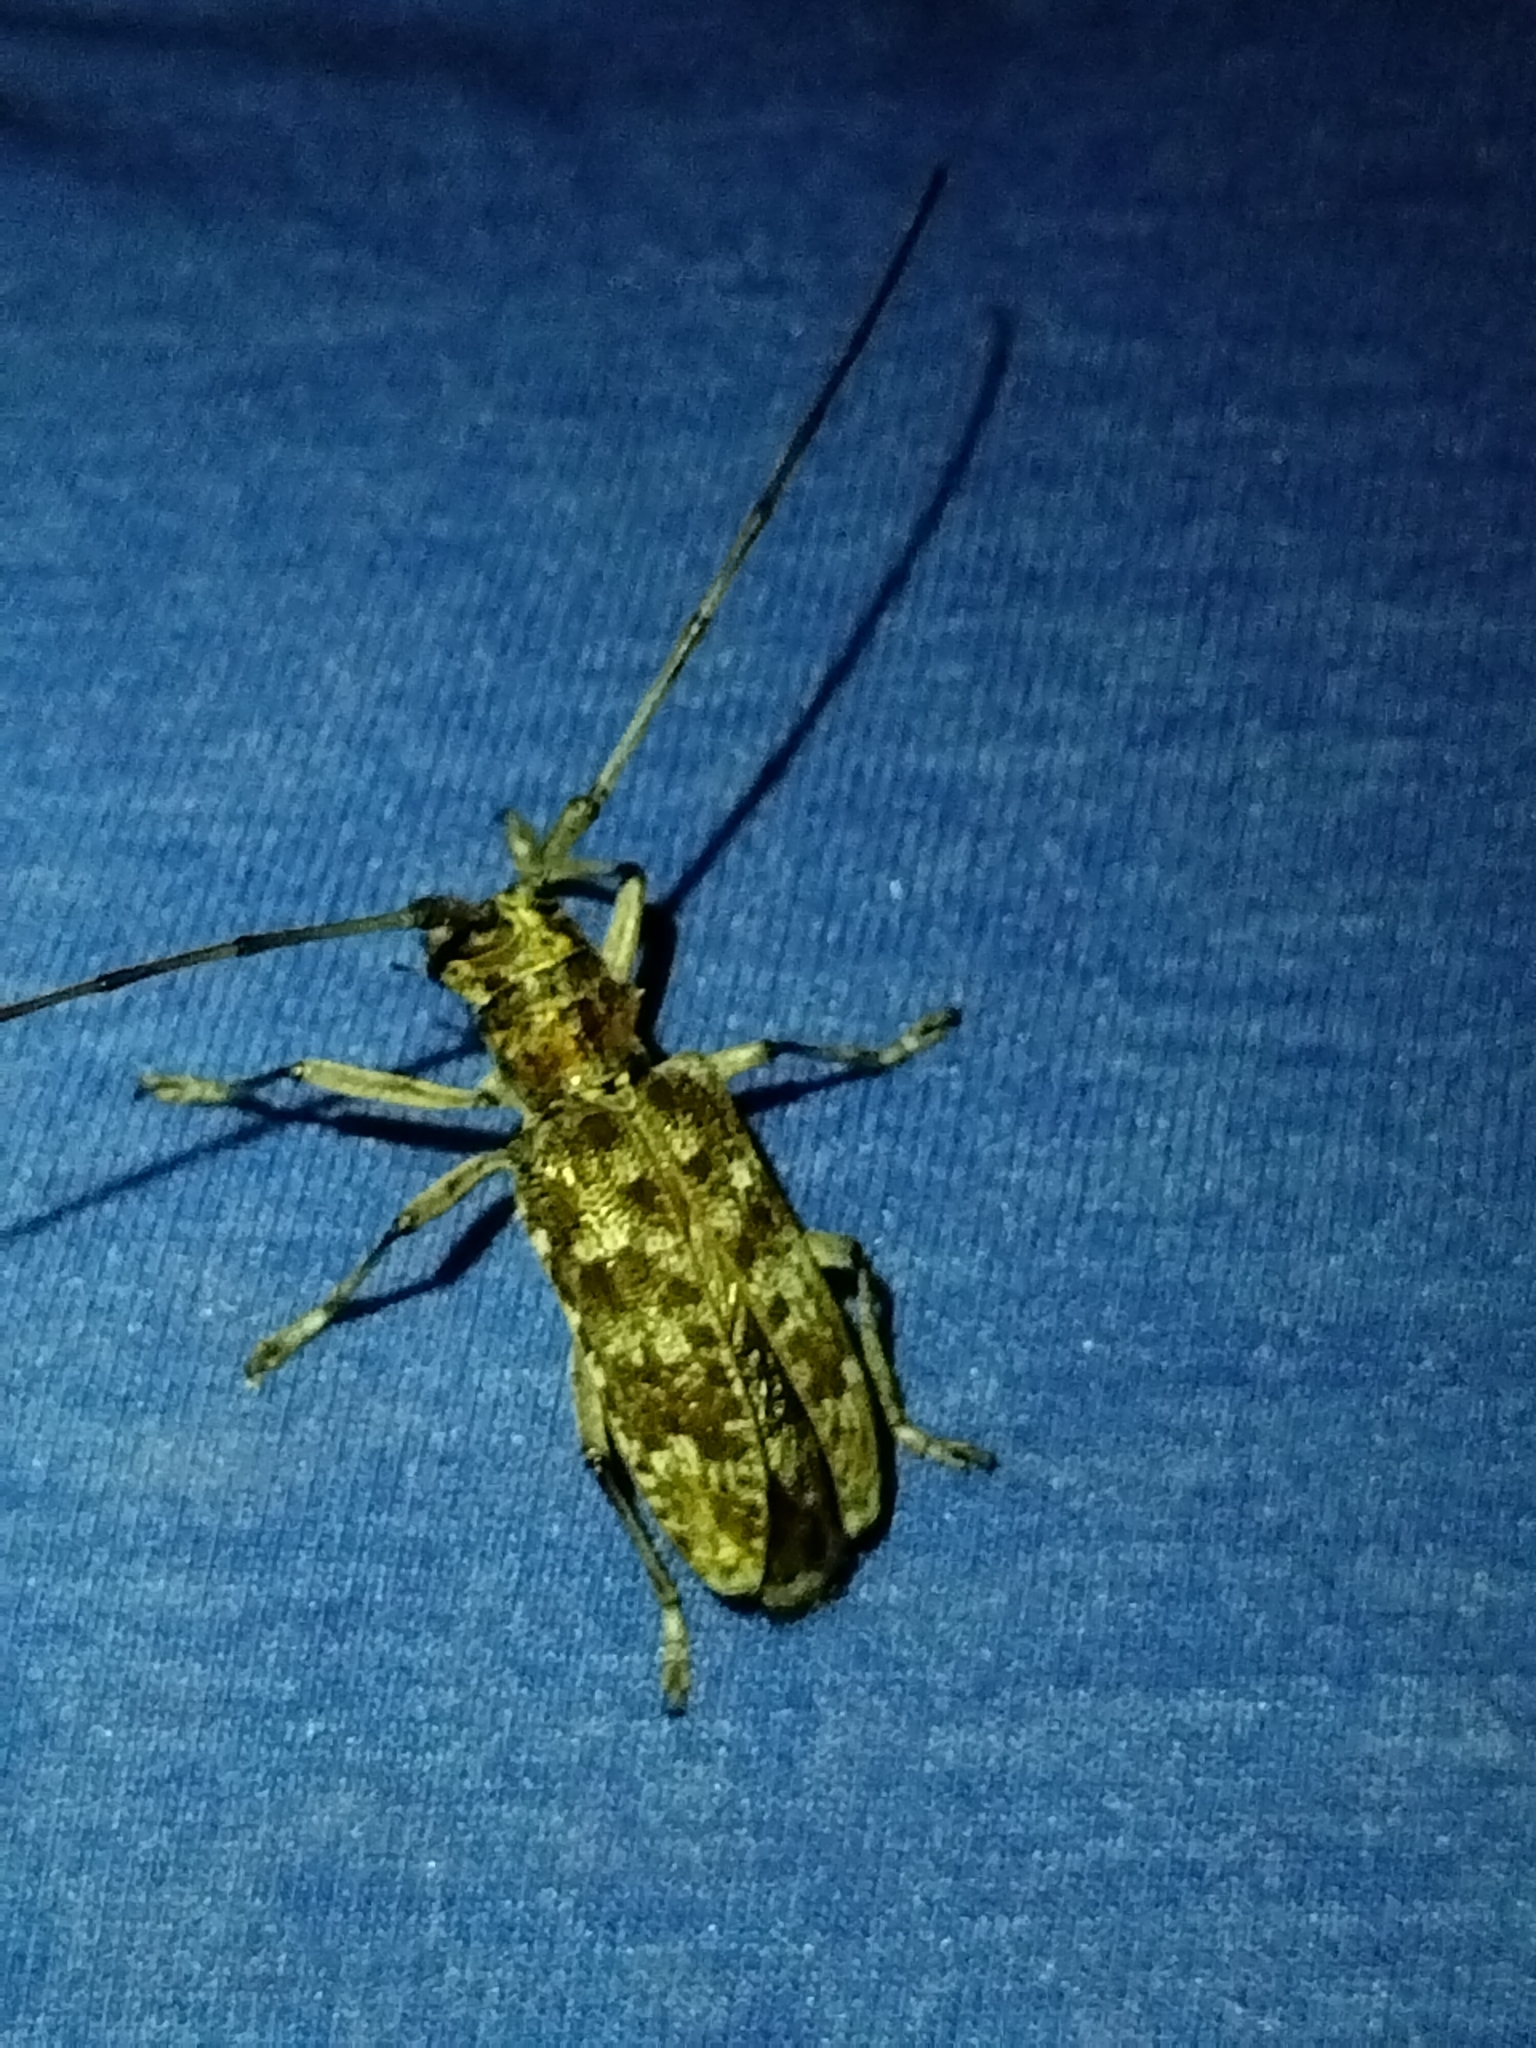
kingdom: Animalia
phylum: Arthropoda
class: Insecta
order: Coleoptera
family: Cerambycidae
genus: Monochamus
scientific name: Monochamus carolinensis
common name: Carolina pine sawyer
